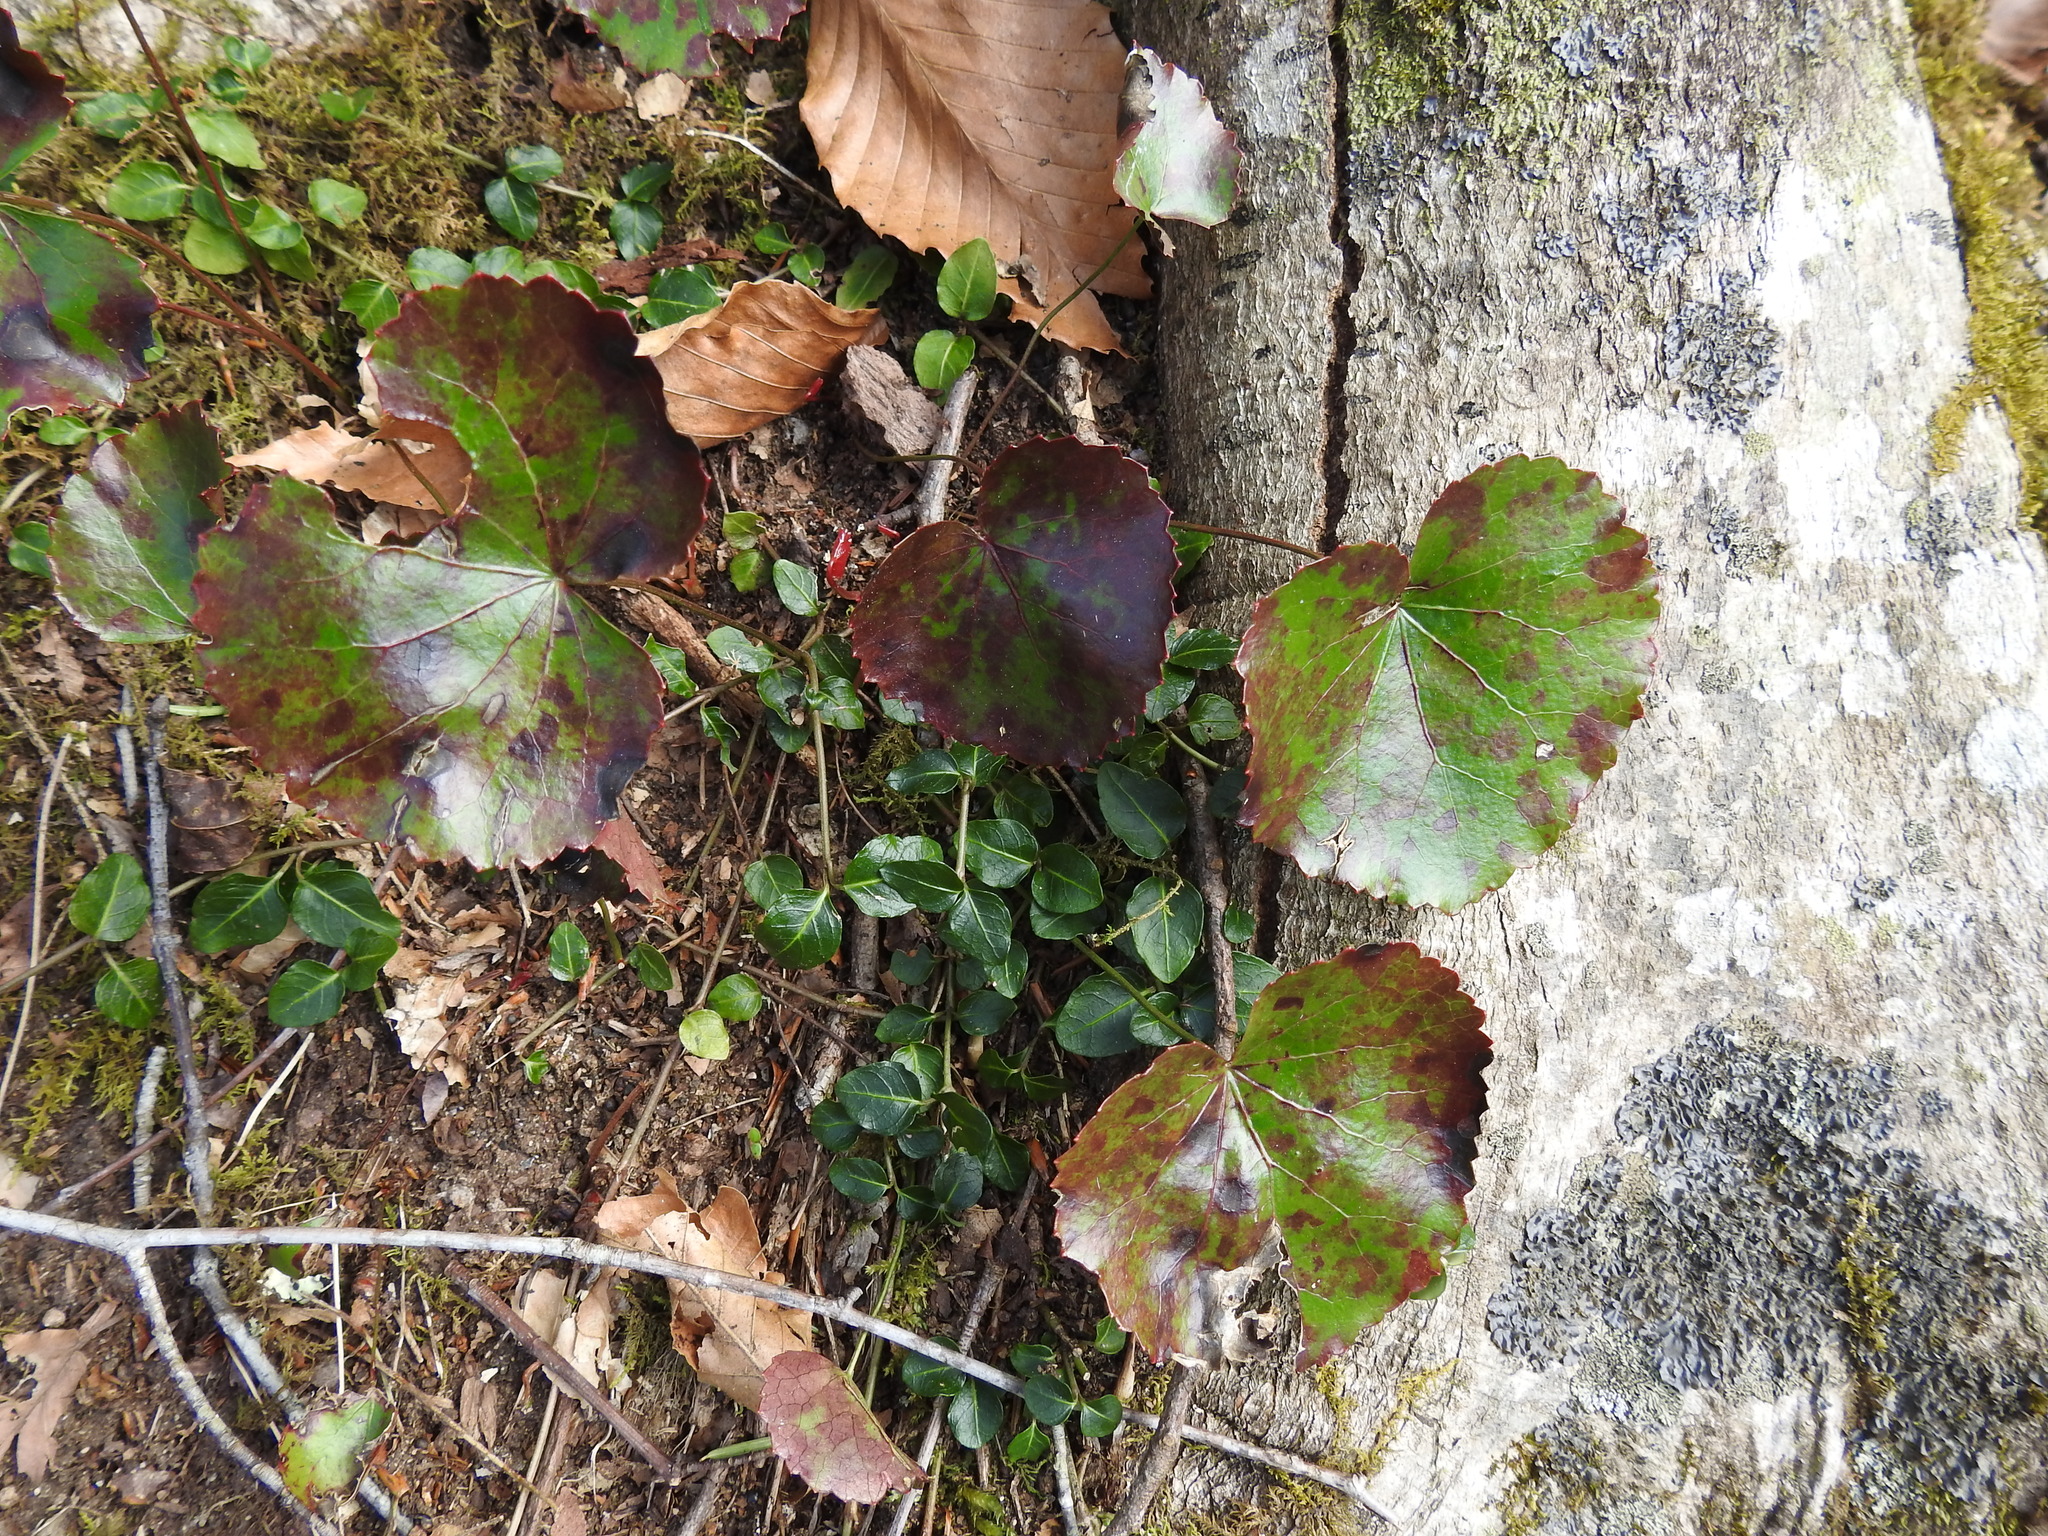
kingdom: Plantae
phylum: Tracheophyta
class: Magnoliopsida
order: Ericales
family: Diapensiaceae
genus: Galax
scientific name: Galax urceolata
